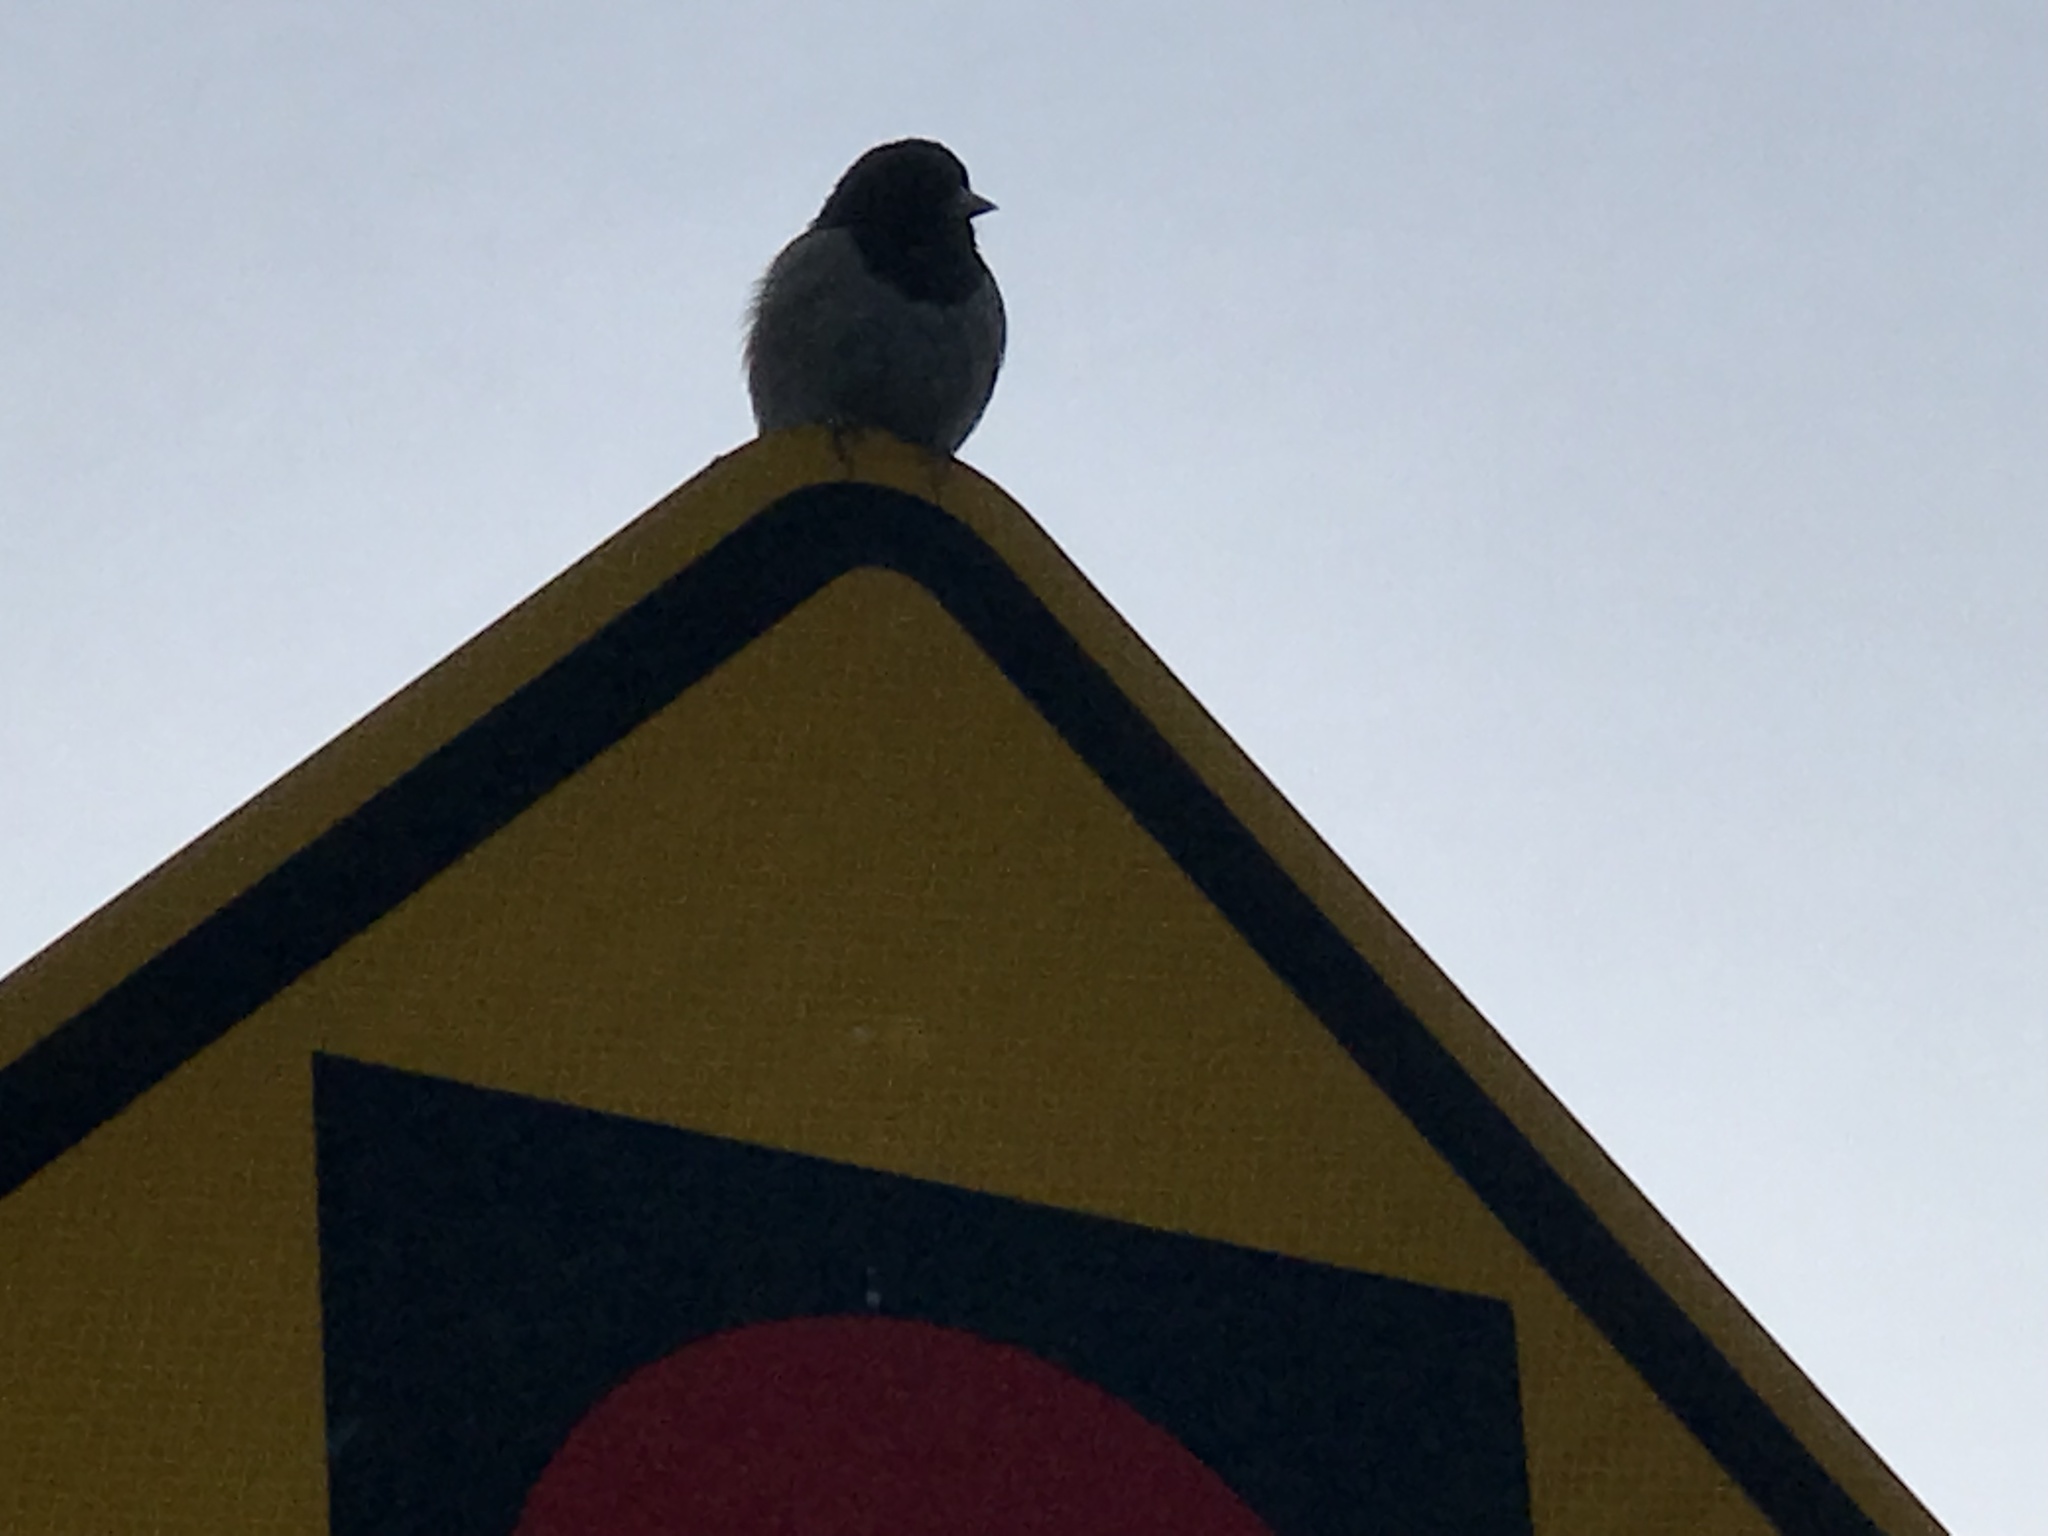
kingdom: Animalia
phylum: Chordata
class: Aves
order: Passeriformes
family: Passerellidae
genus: Junco
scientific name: Junco hyemalis
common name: Dark-eyed junco
